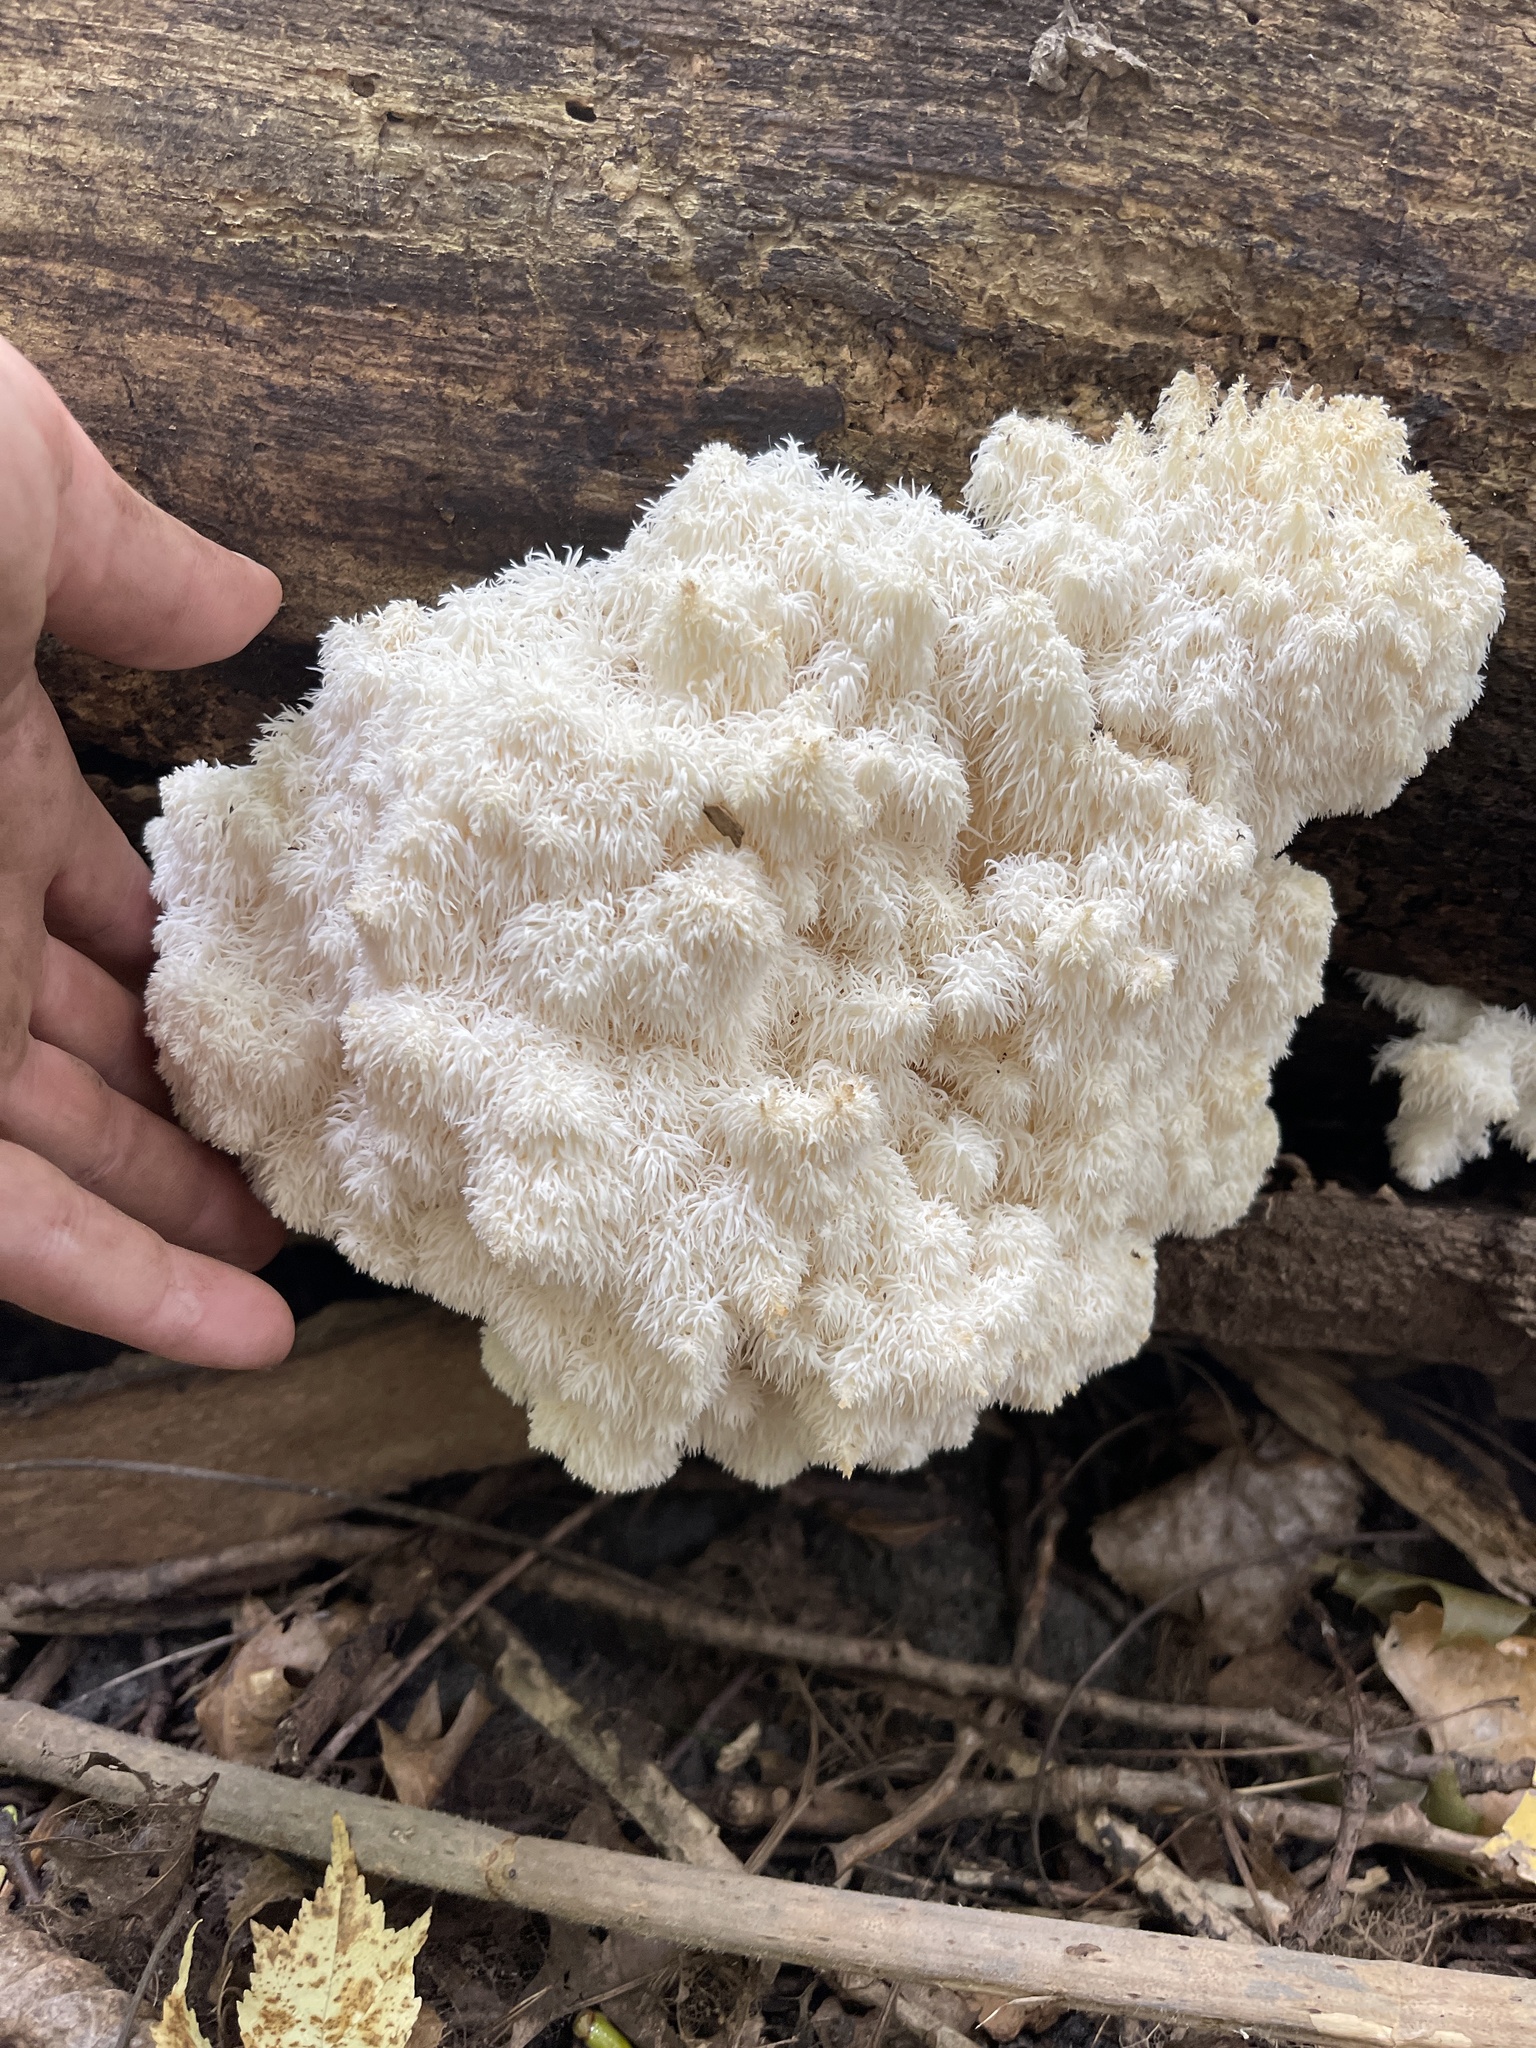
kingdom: Fungi
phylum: Basidiomycota
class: Agaricomycetes
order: Russulales
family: Hericiaceae
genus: Hericium
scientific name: Hericium americanum
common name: Bear's head tooth
